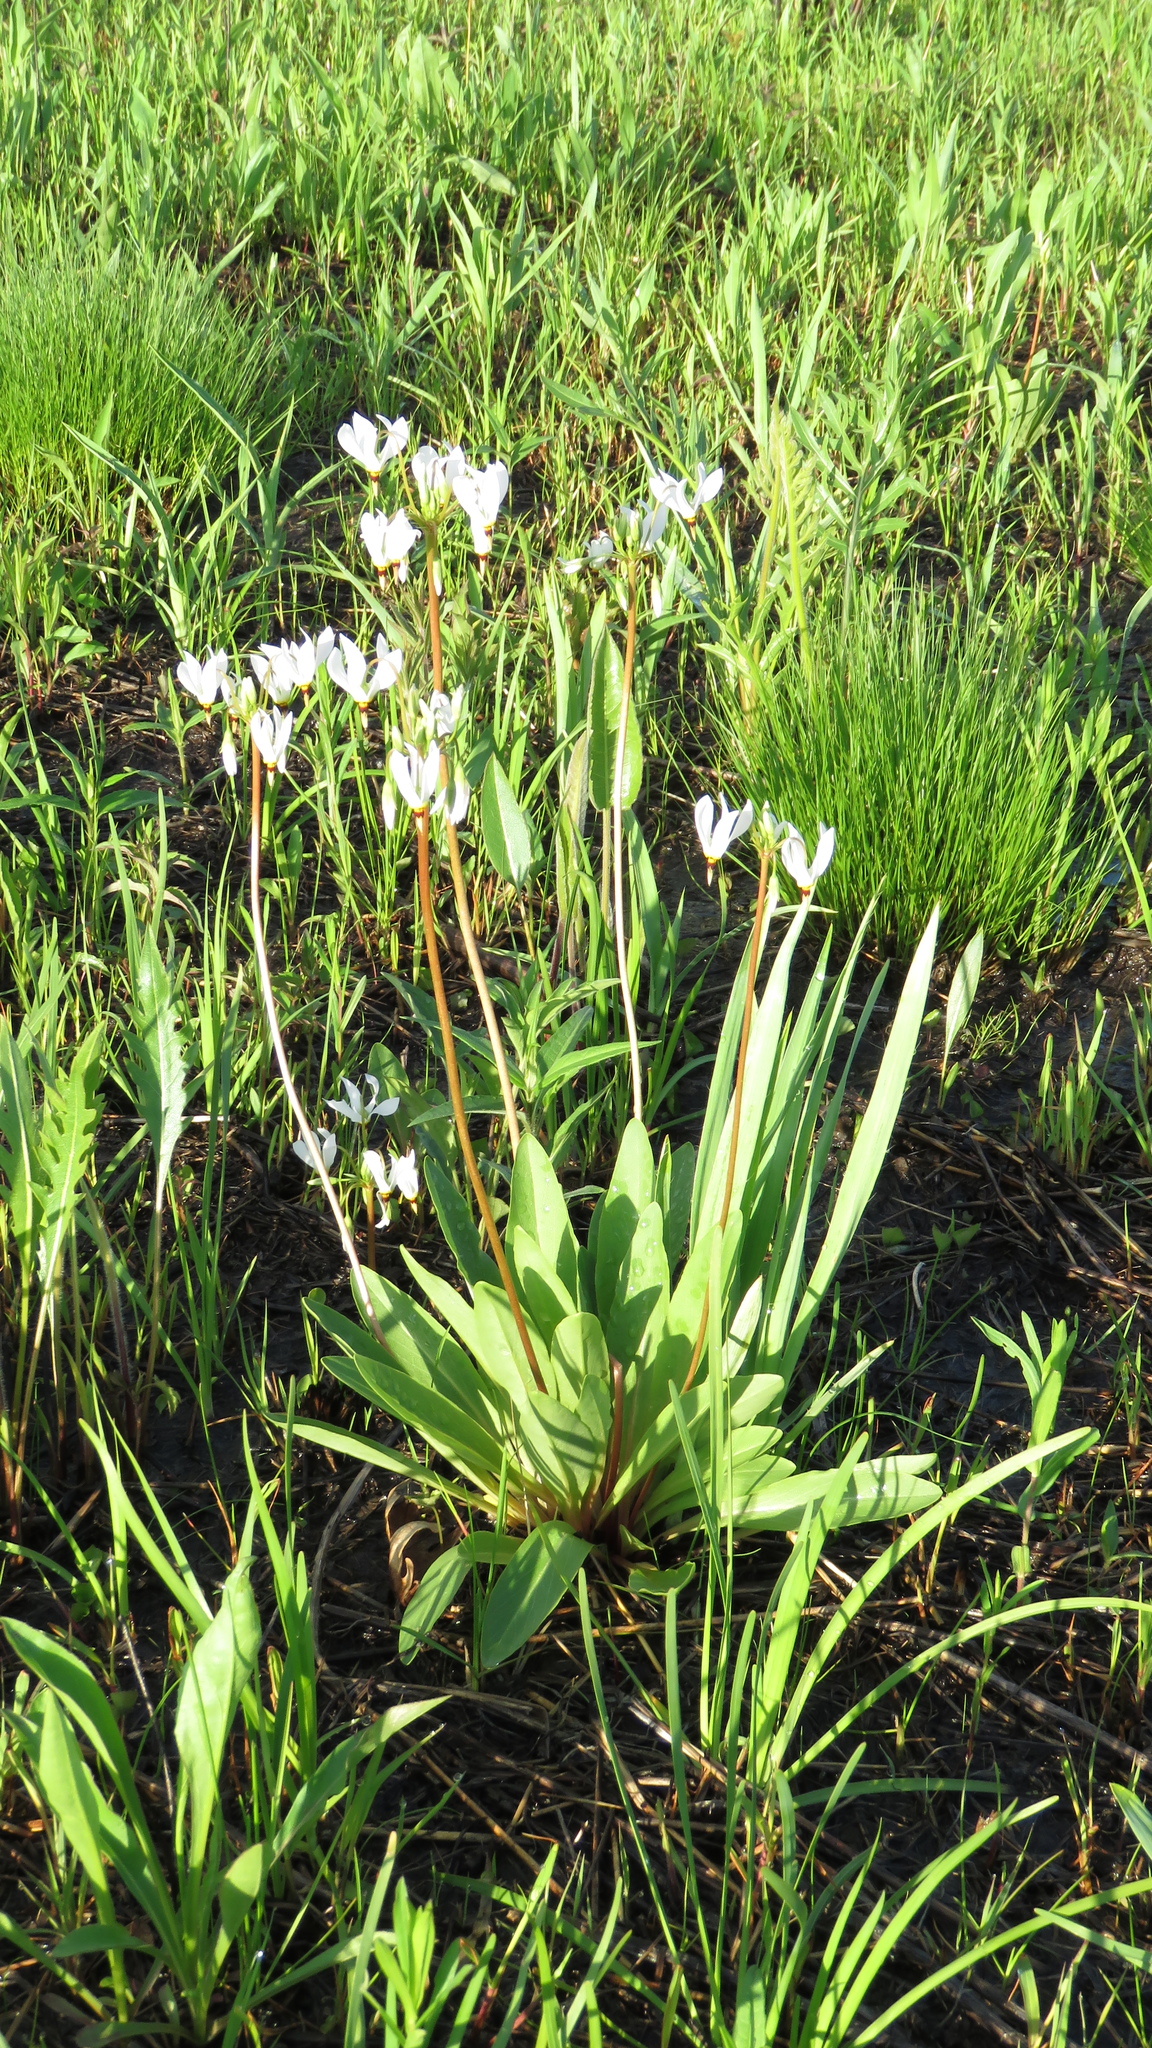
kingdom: Plantae
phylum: Tracheophyta
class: Magnoliopsida
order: Ericales
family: Primulaceae
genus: Dodecatheon
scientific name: Dodecatheon meadia
